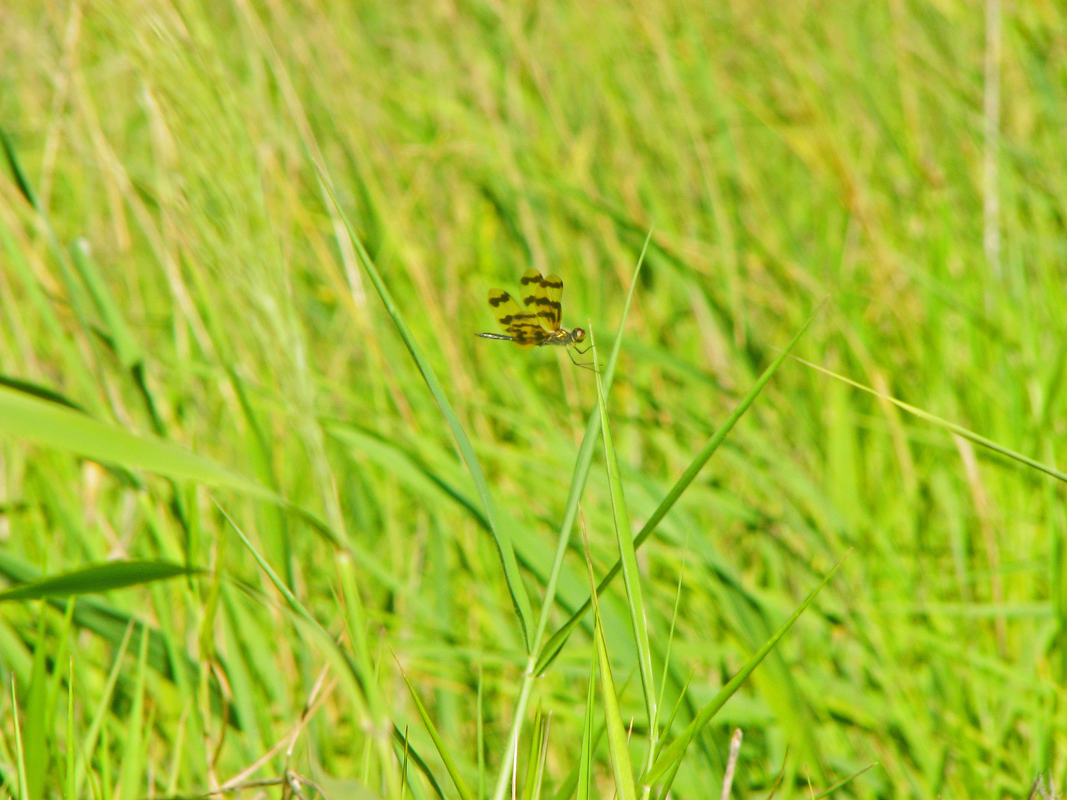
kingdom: Animalia
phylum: Arthropoda
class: Insecta
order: Odonata
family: Libellulidae
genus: Rhyothemis
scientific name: Rhyothemis graphiptera
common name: Graphic flutterer
